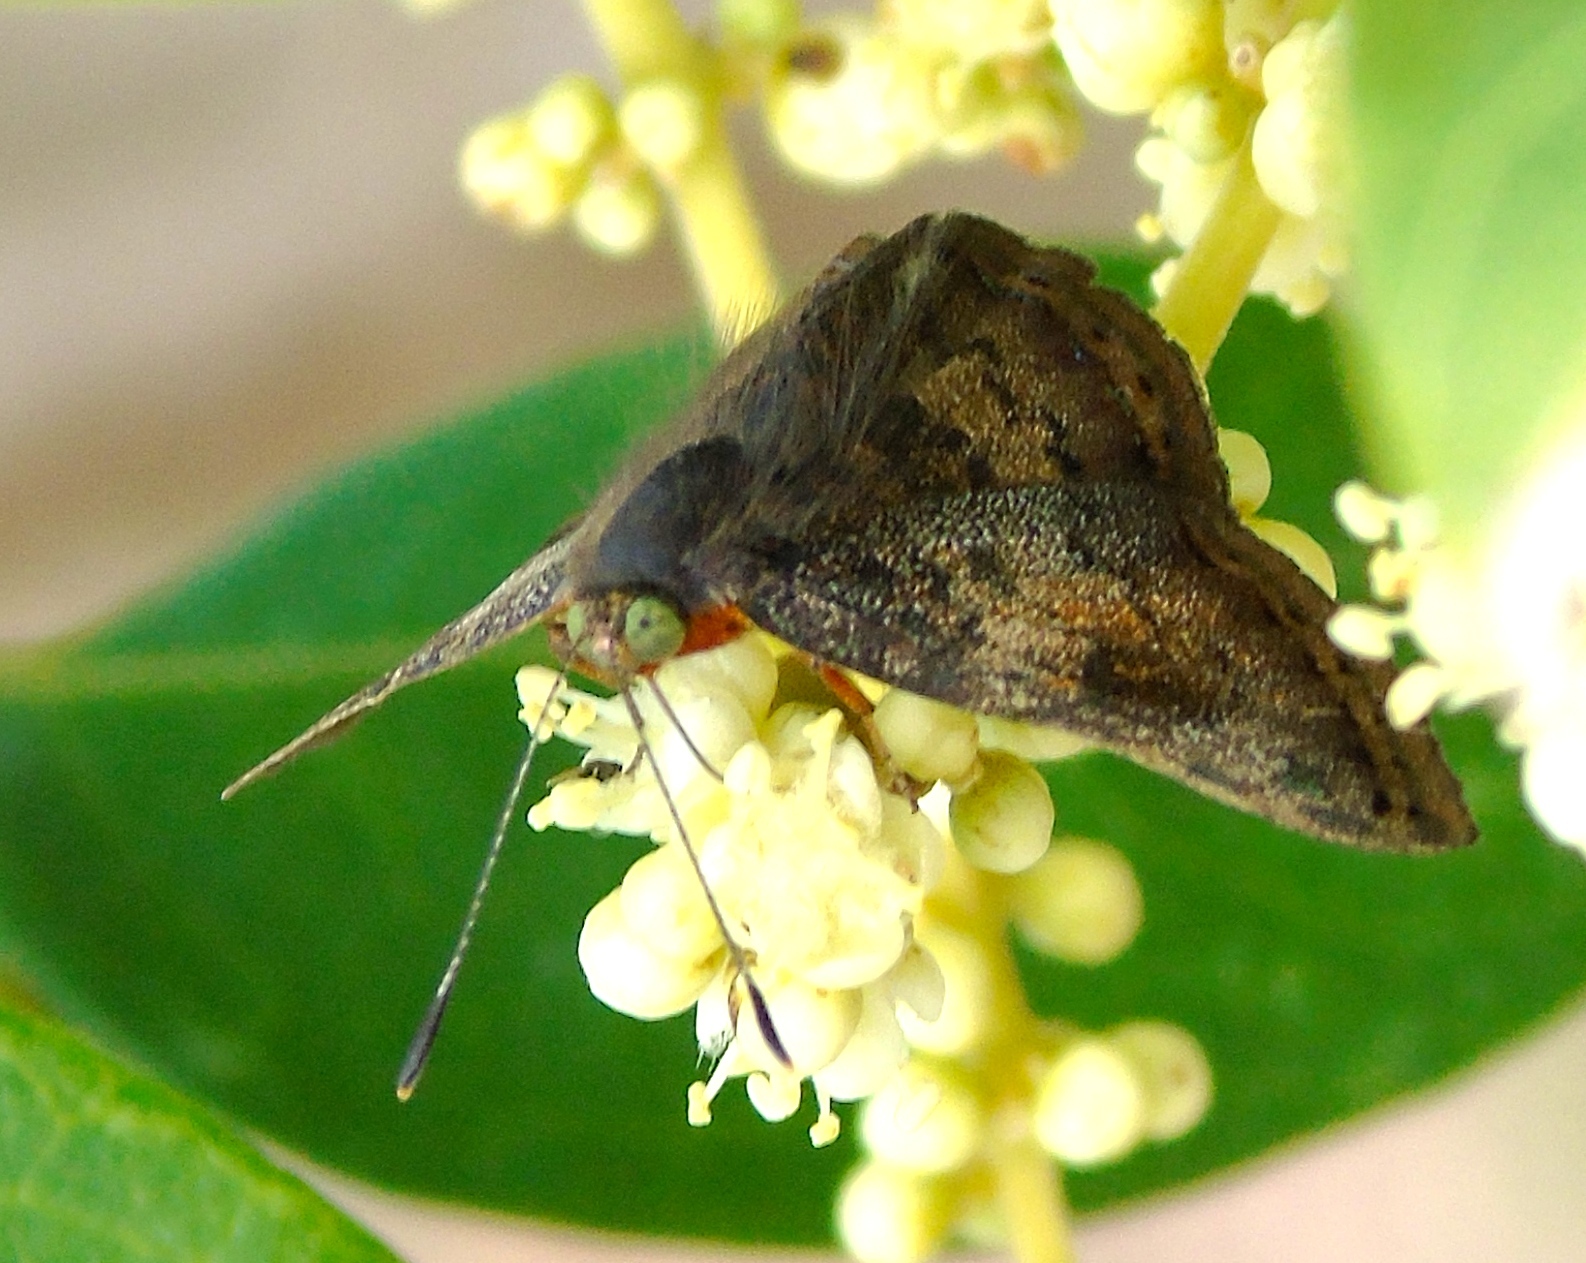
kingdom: Animalia
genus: Caria
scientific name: Caria ino
